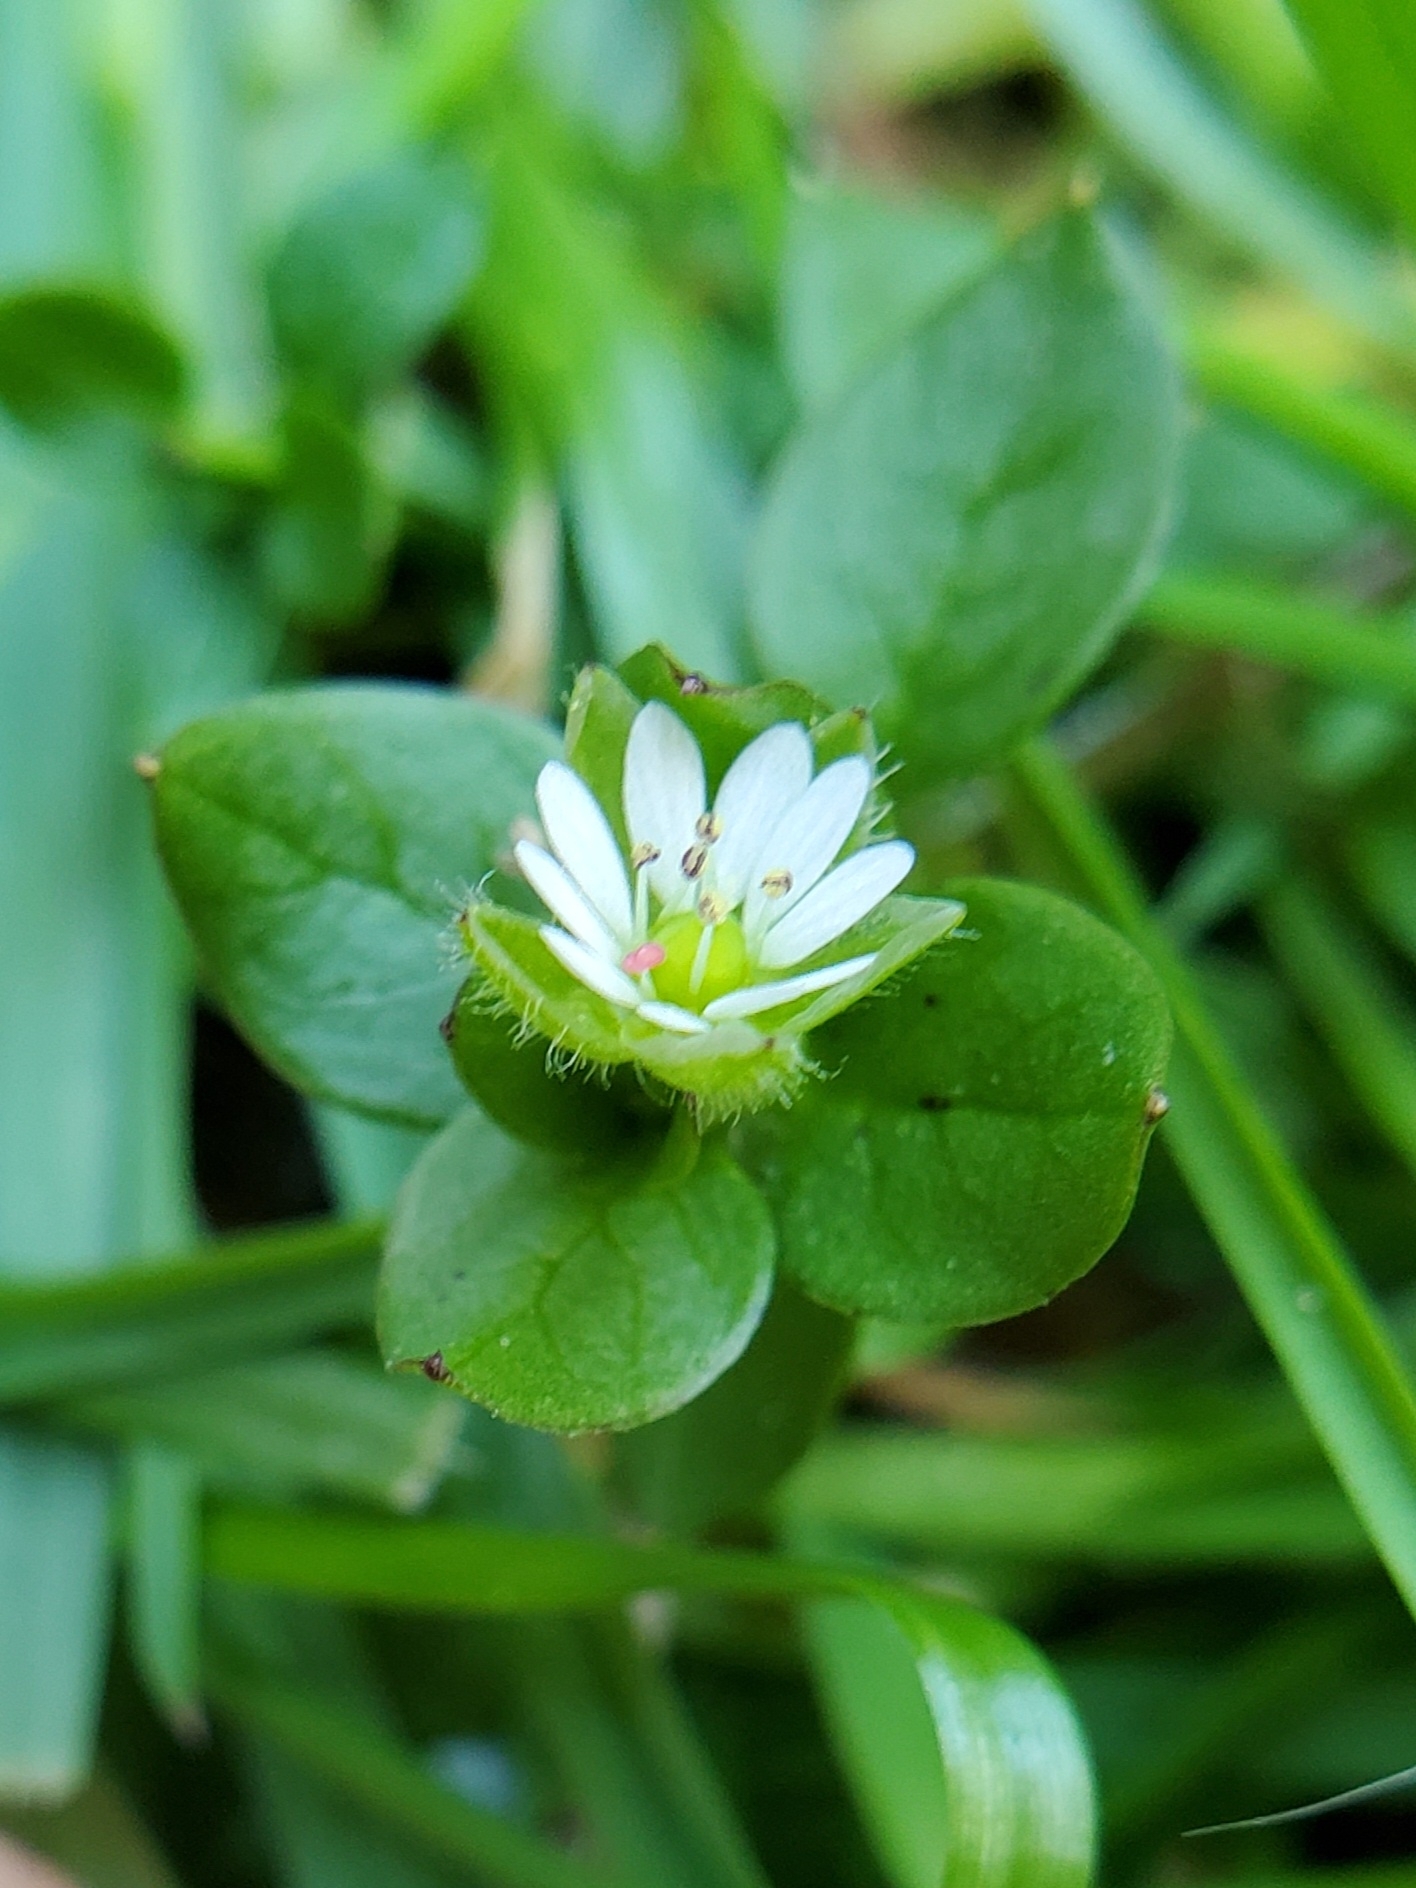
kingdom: Plantae
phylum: Tracheophyta
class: Magnoliopsida
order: Caryophyllales
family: Caryophyllaceae
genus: Stellaria
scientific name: Stellaria media
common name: Common chickweed
